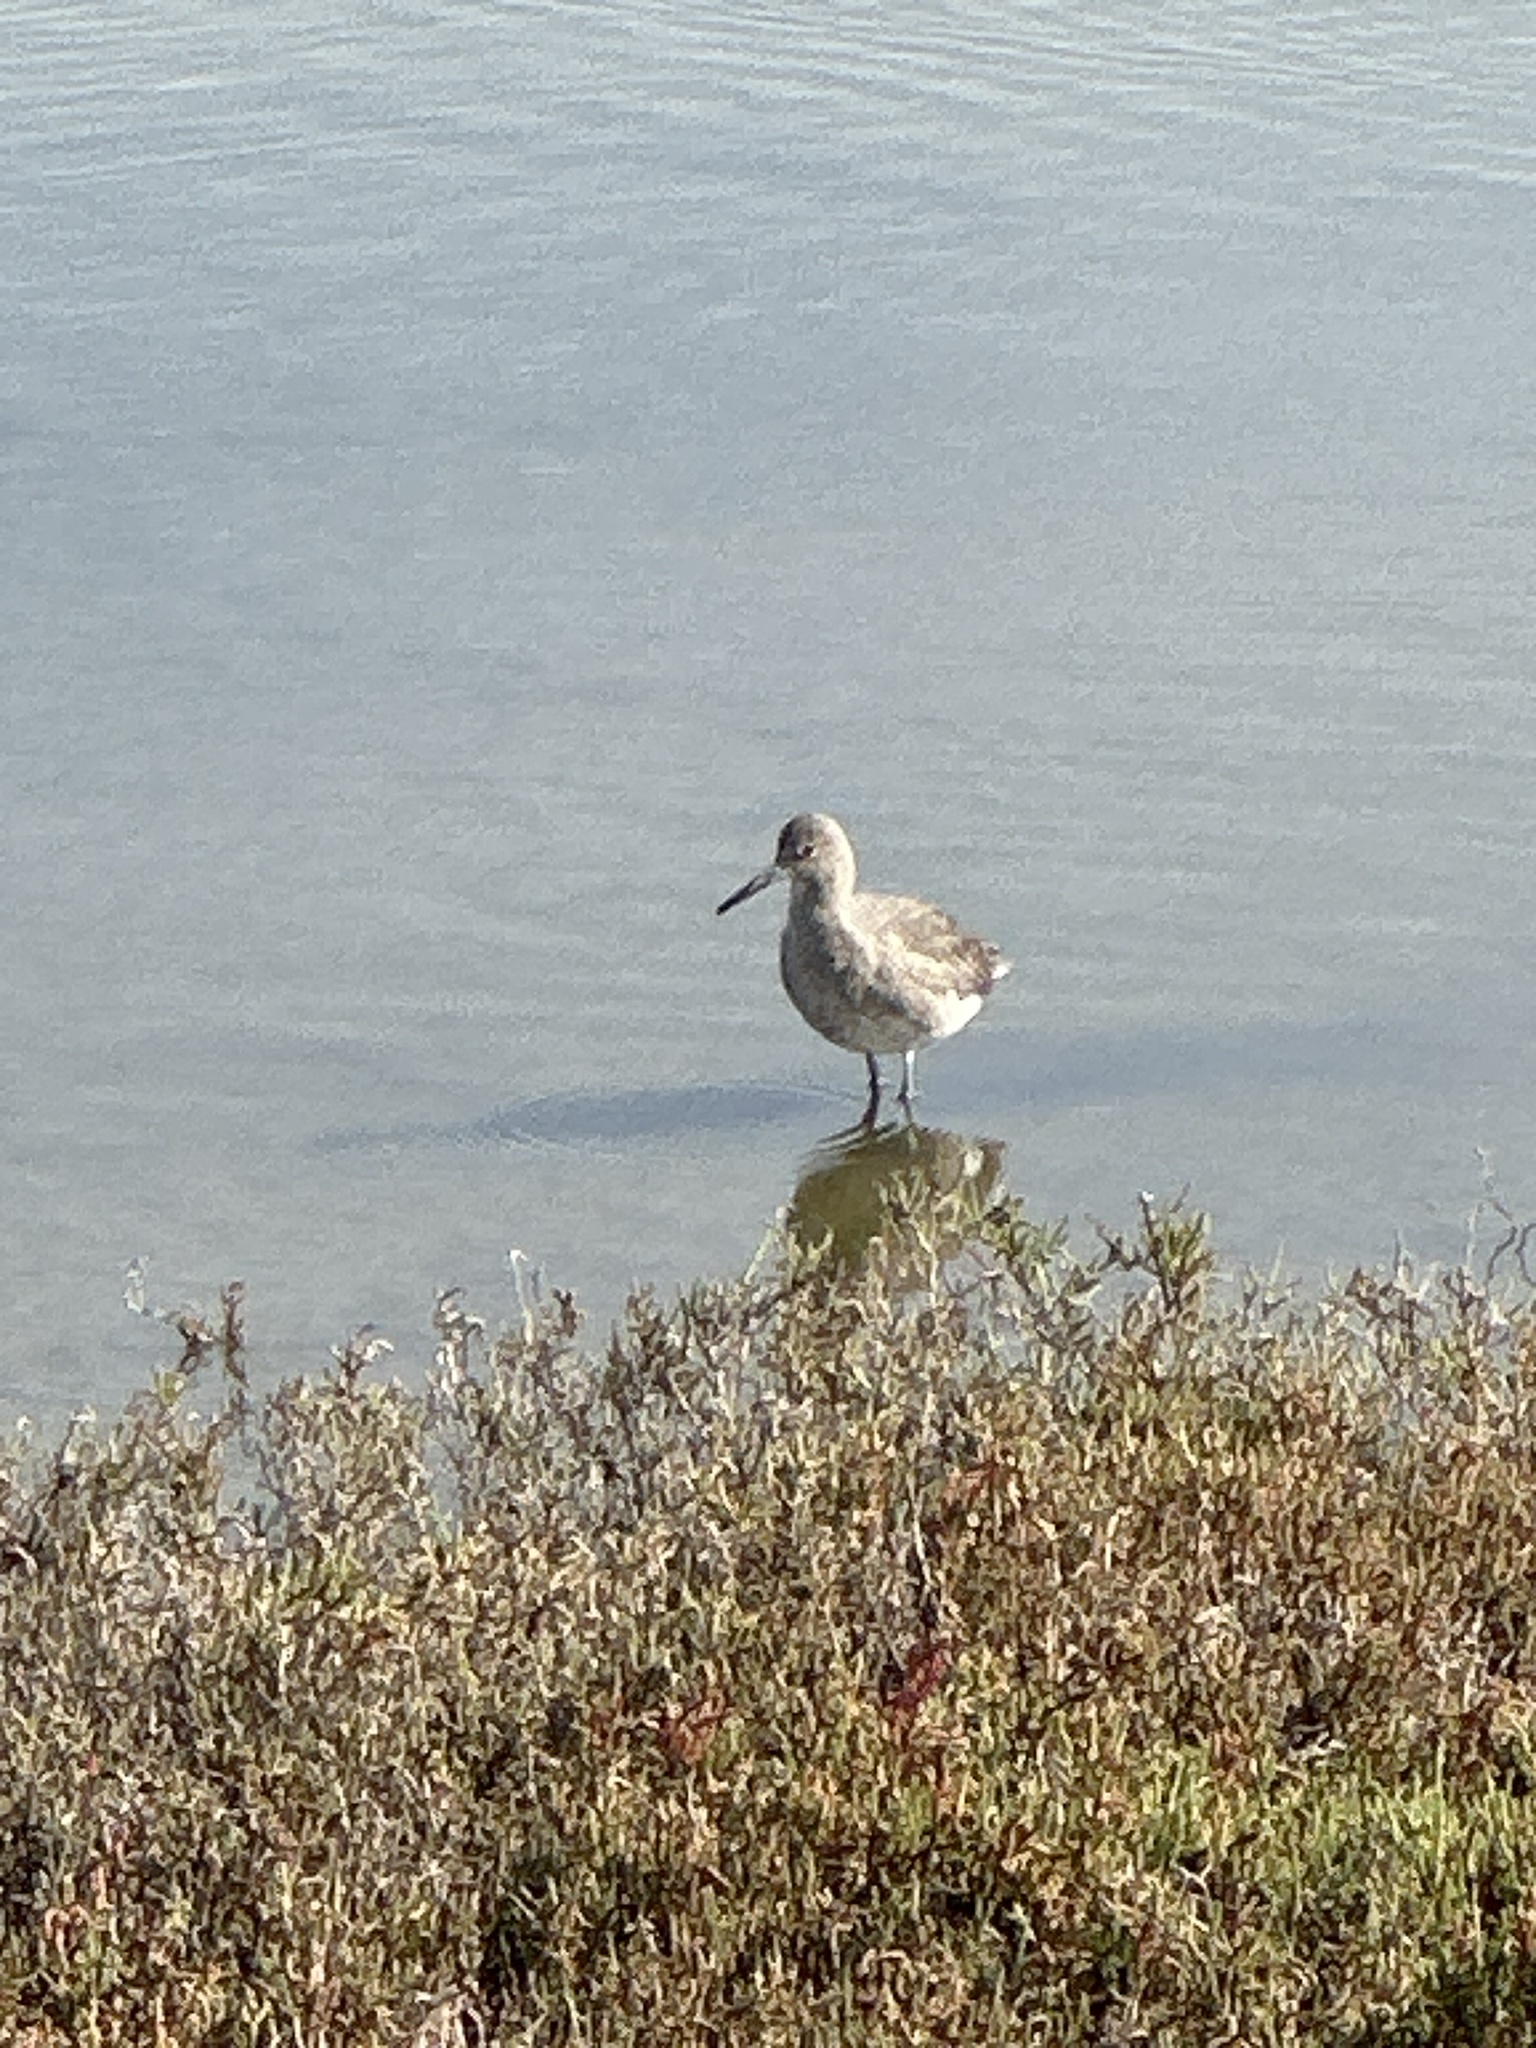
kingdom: Animalia
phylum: Chordata
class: Aves
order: Charadriiformes
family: Scolopacidae
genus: Tringa
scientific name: Tringa semipalmata
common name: Willet
